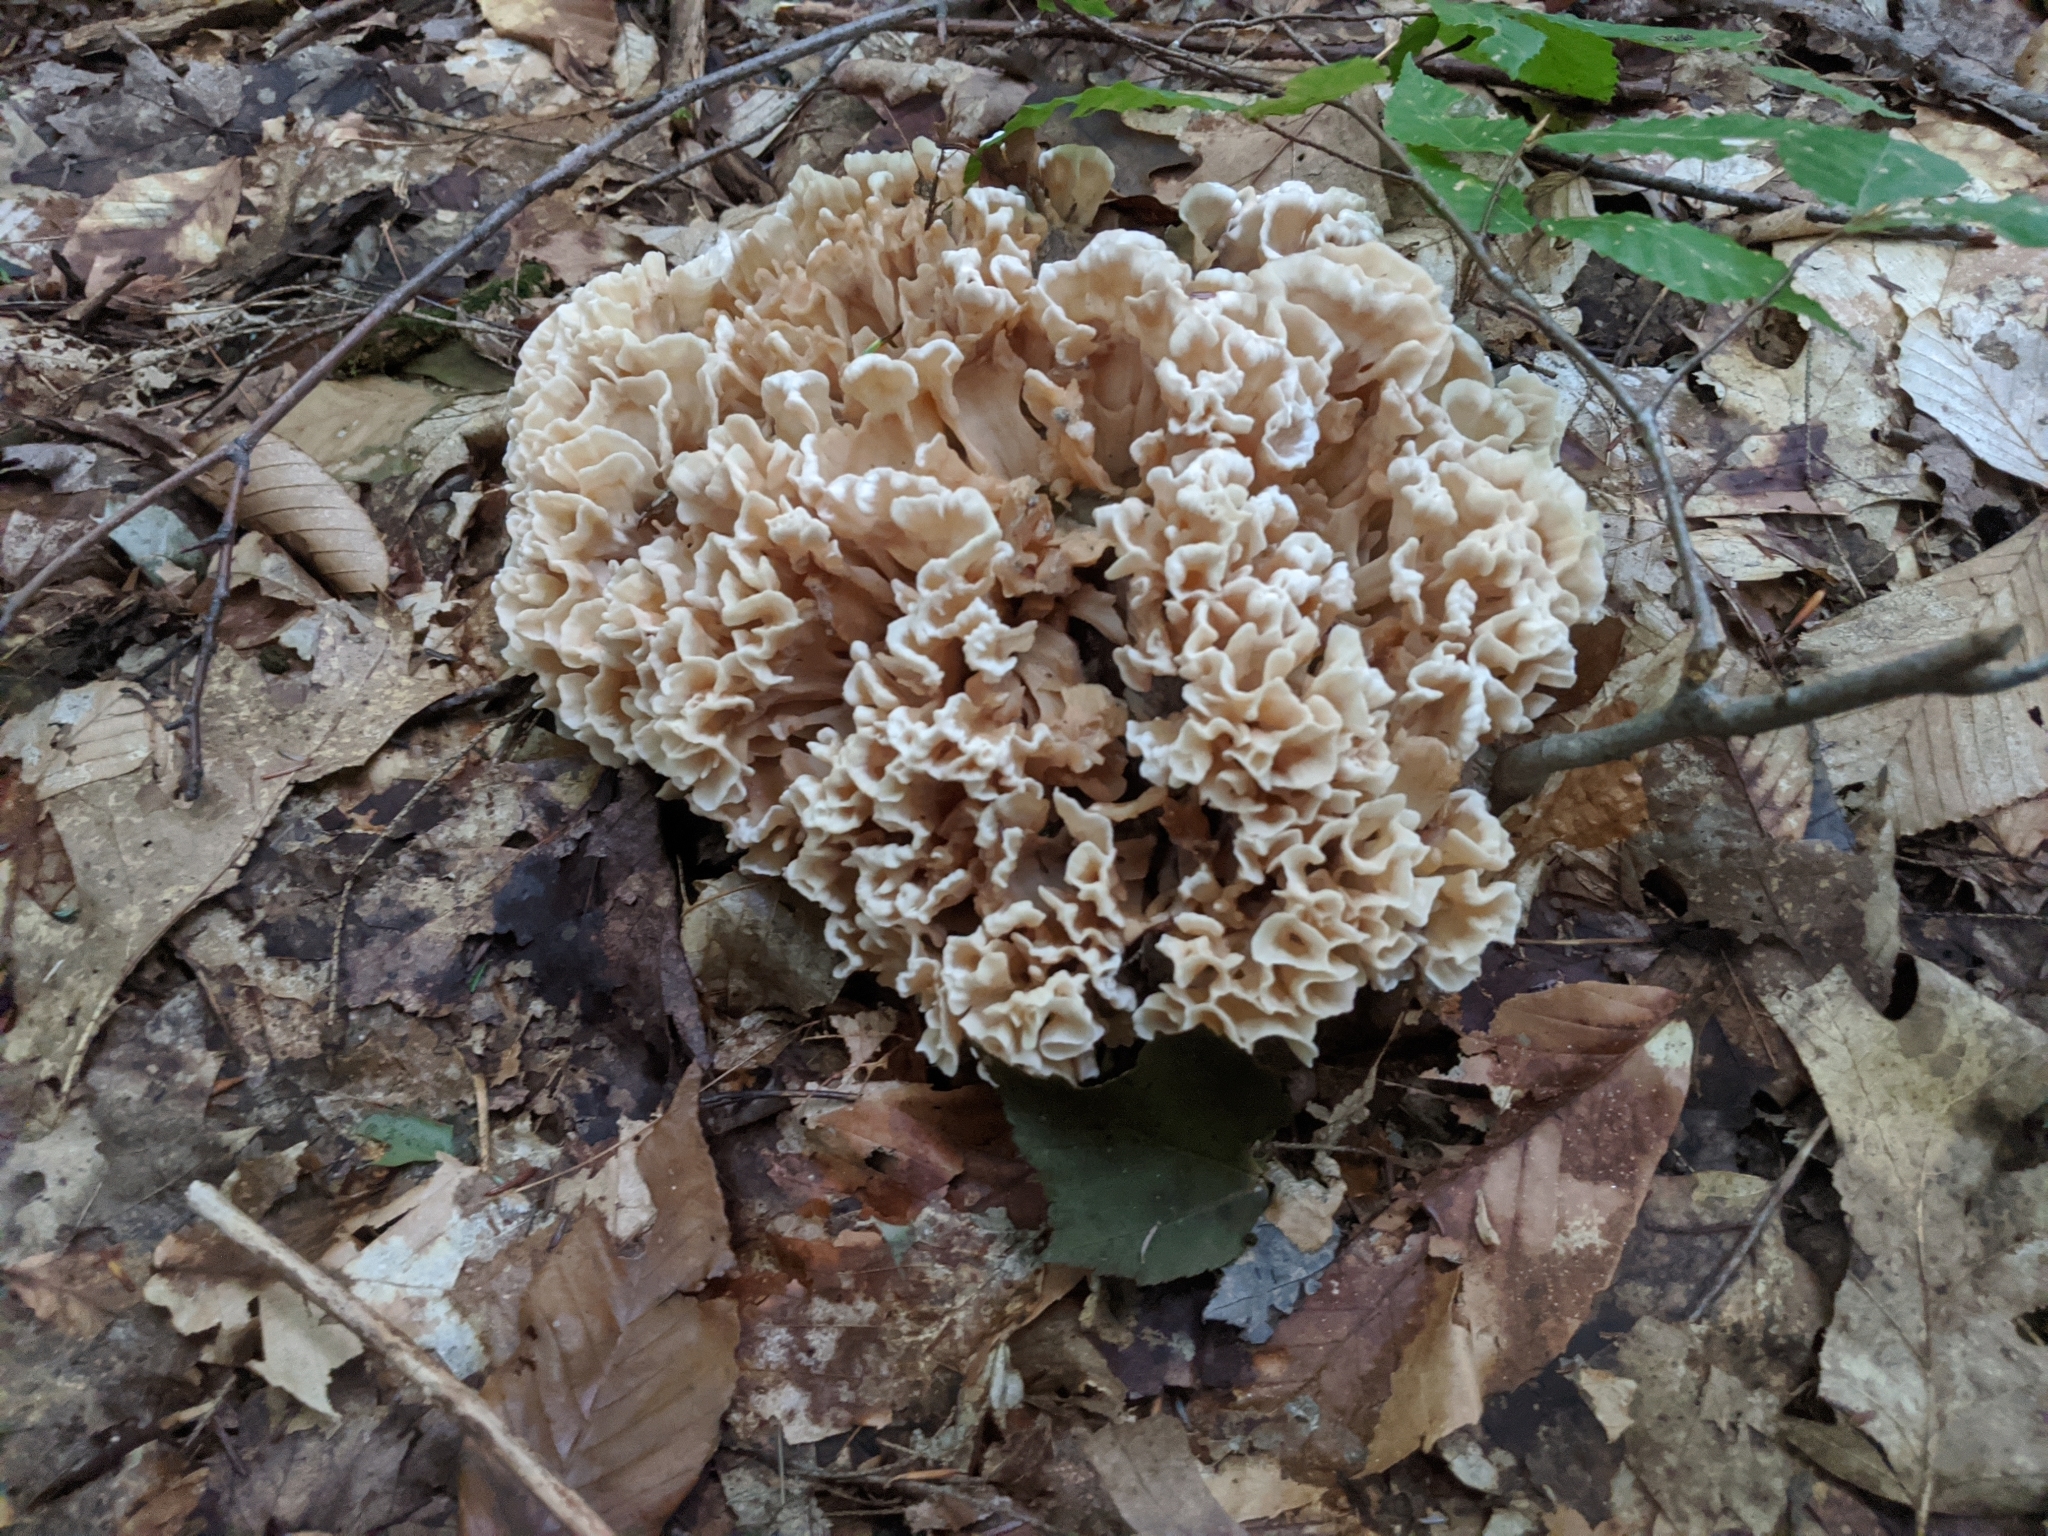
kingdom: Fungi
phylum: Basidiomycota
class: Agaricomycetes
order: Polyporales
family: Sparassidaceae
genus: Sparassis
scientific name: Sparassis spathulata
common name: Eastern cauliflower mushroom
